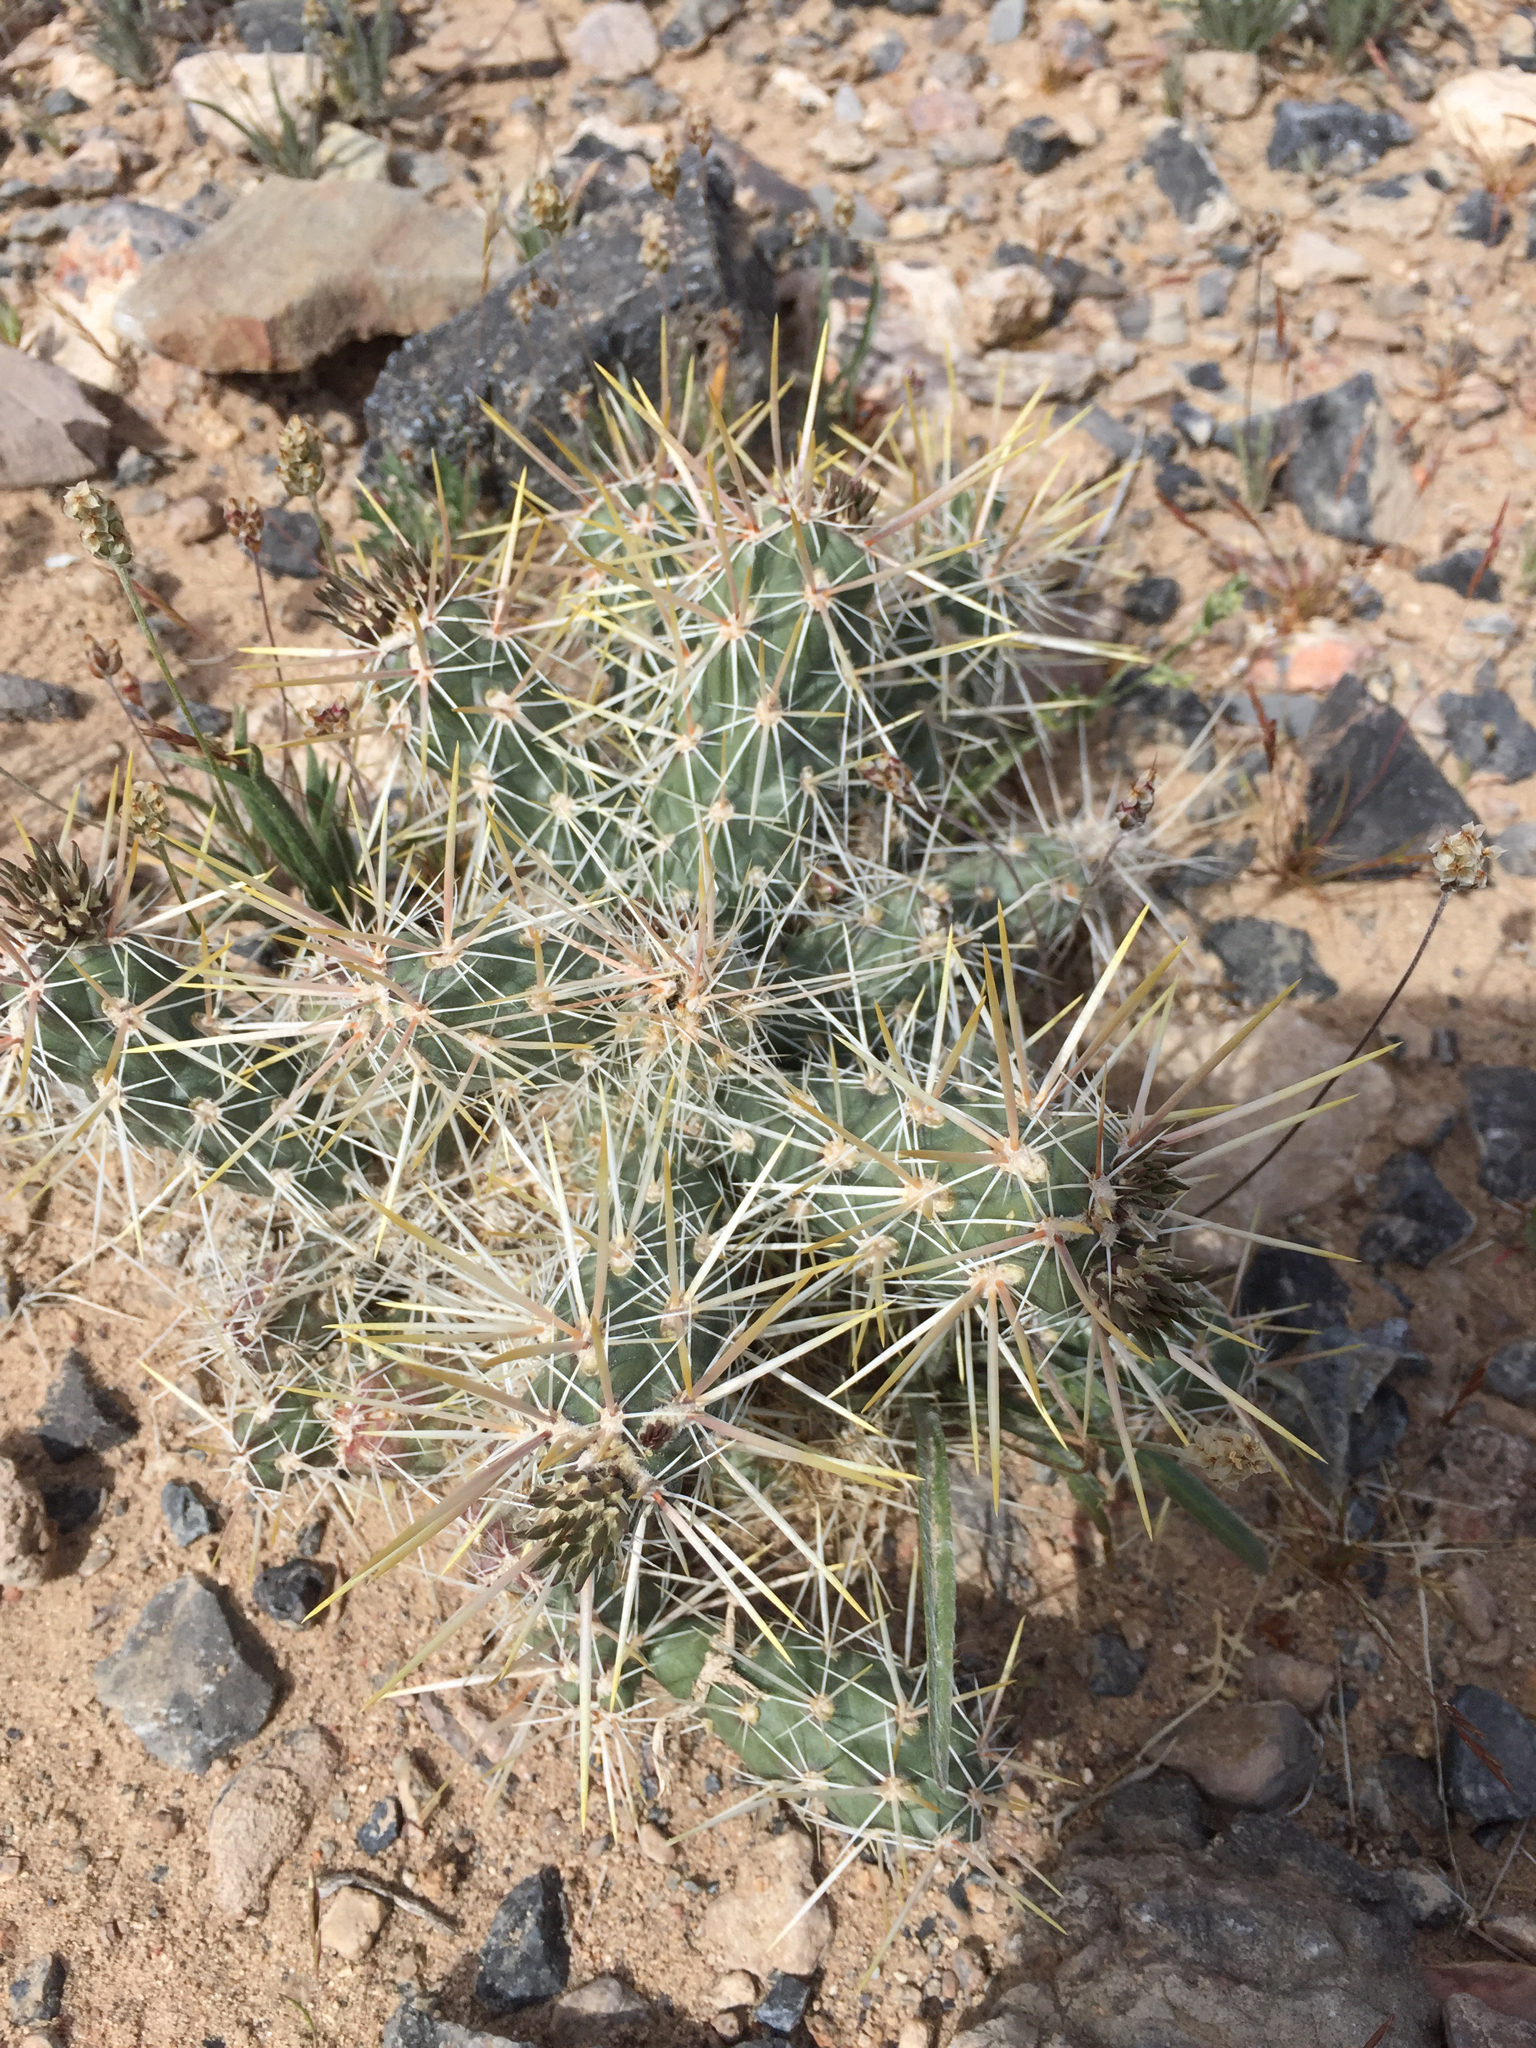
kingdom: Plantae
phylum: Tracheophyta
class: Magnoliopsida
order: Caryophyllales
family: Cactaceae
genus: Cylindropuntia
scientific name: Cylindropuntia echinocarpa
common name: Ground cholla
